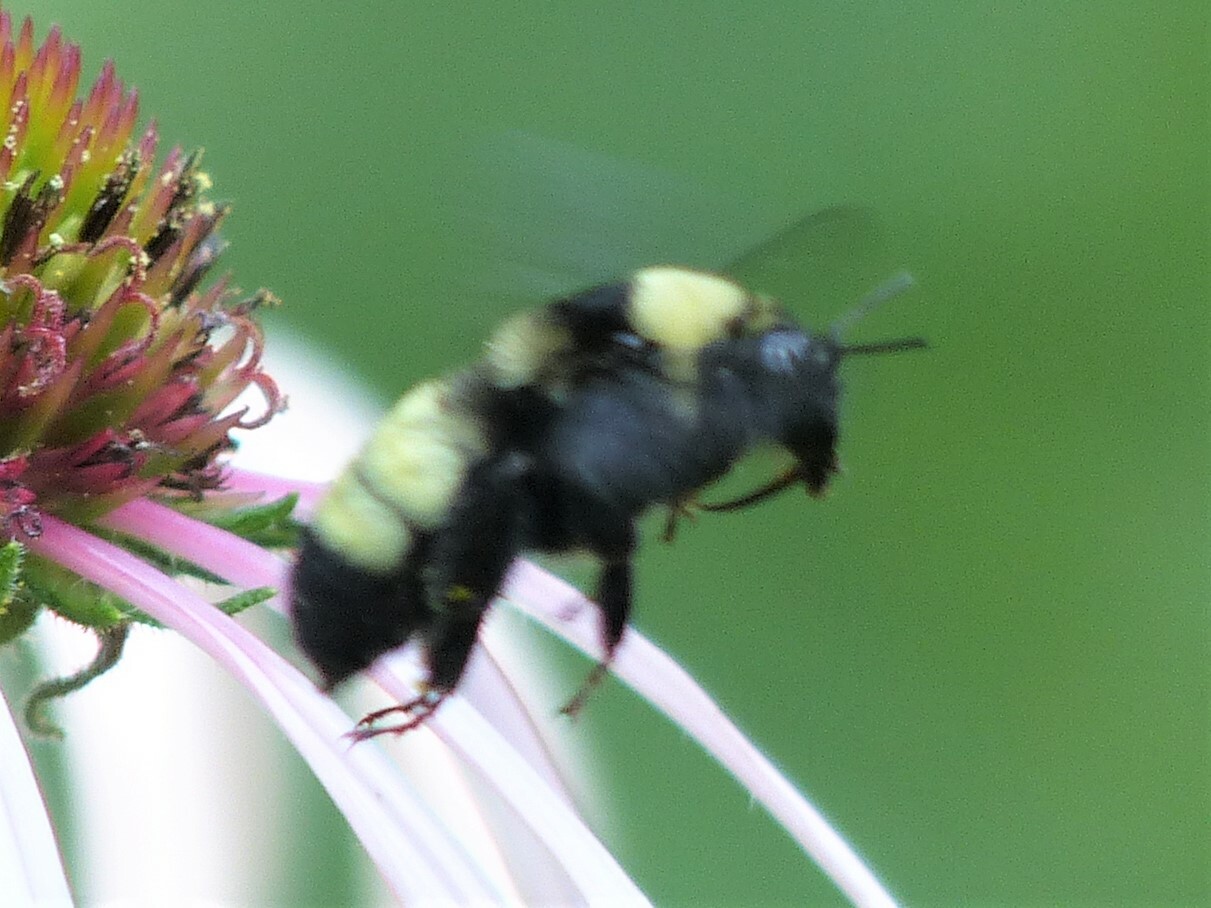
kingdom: Animalia
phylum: Arthropoda
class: Insecta
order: Hymenoptera
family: Apidae
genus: Bombus
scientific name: Bombus auricomus
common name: Black and gold bumble bee
